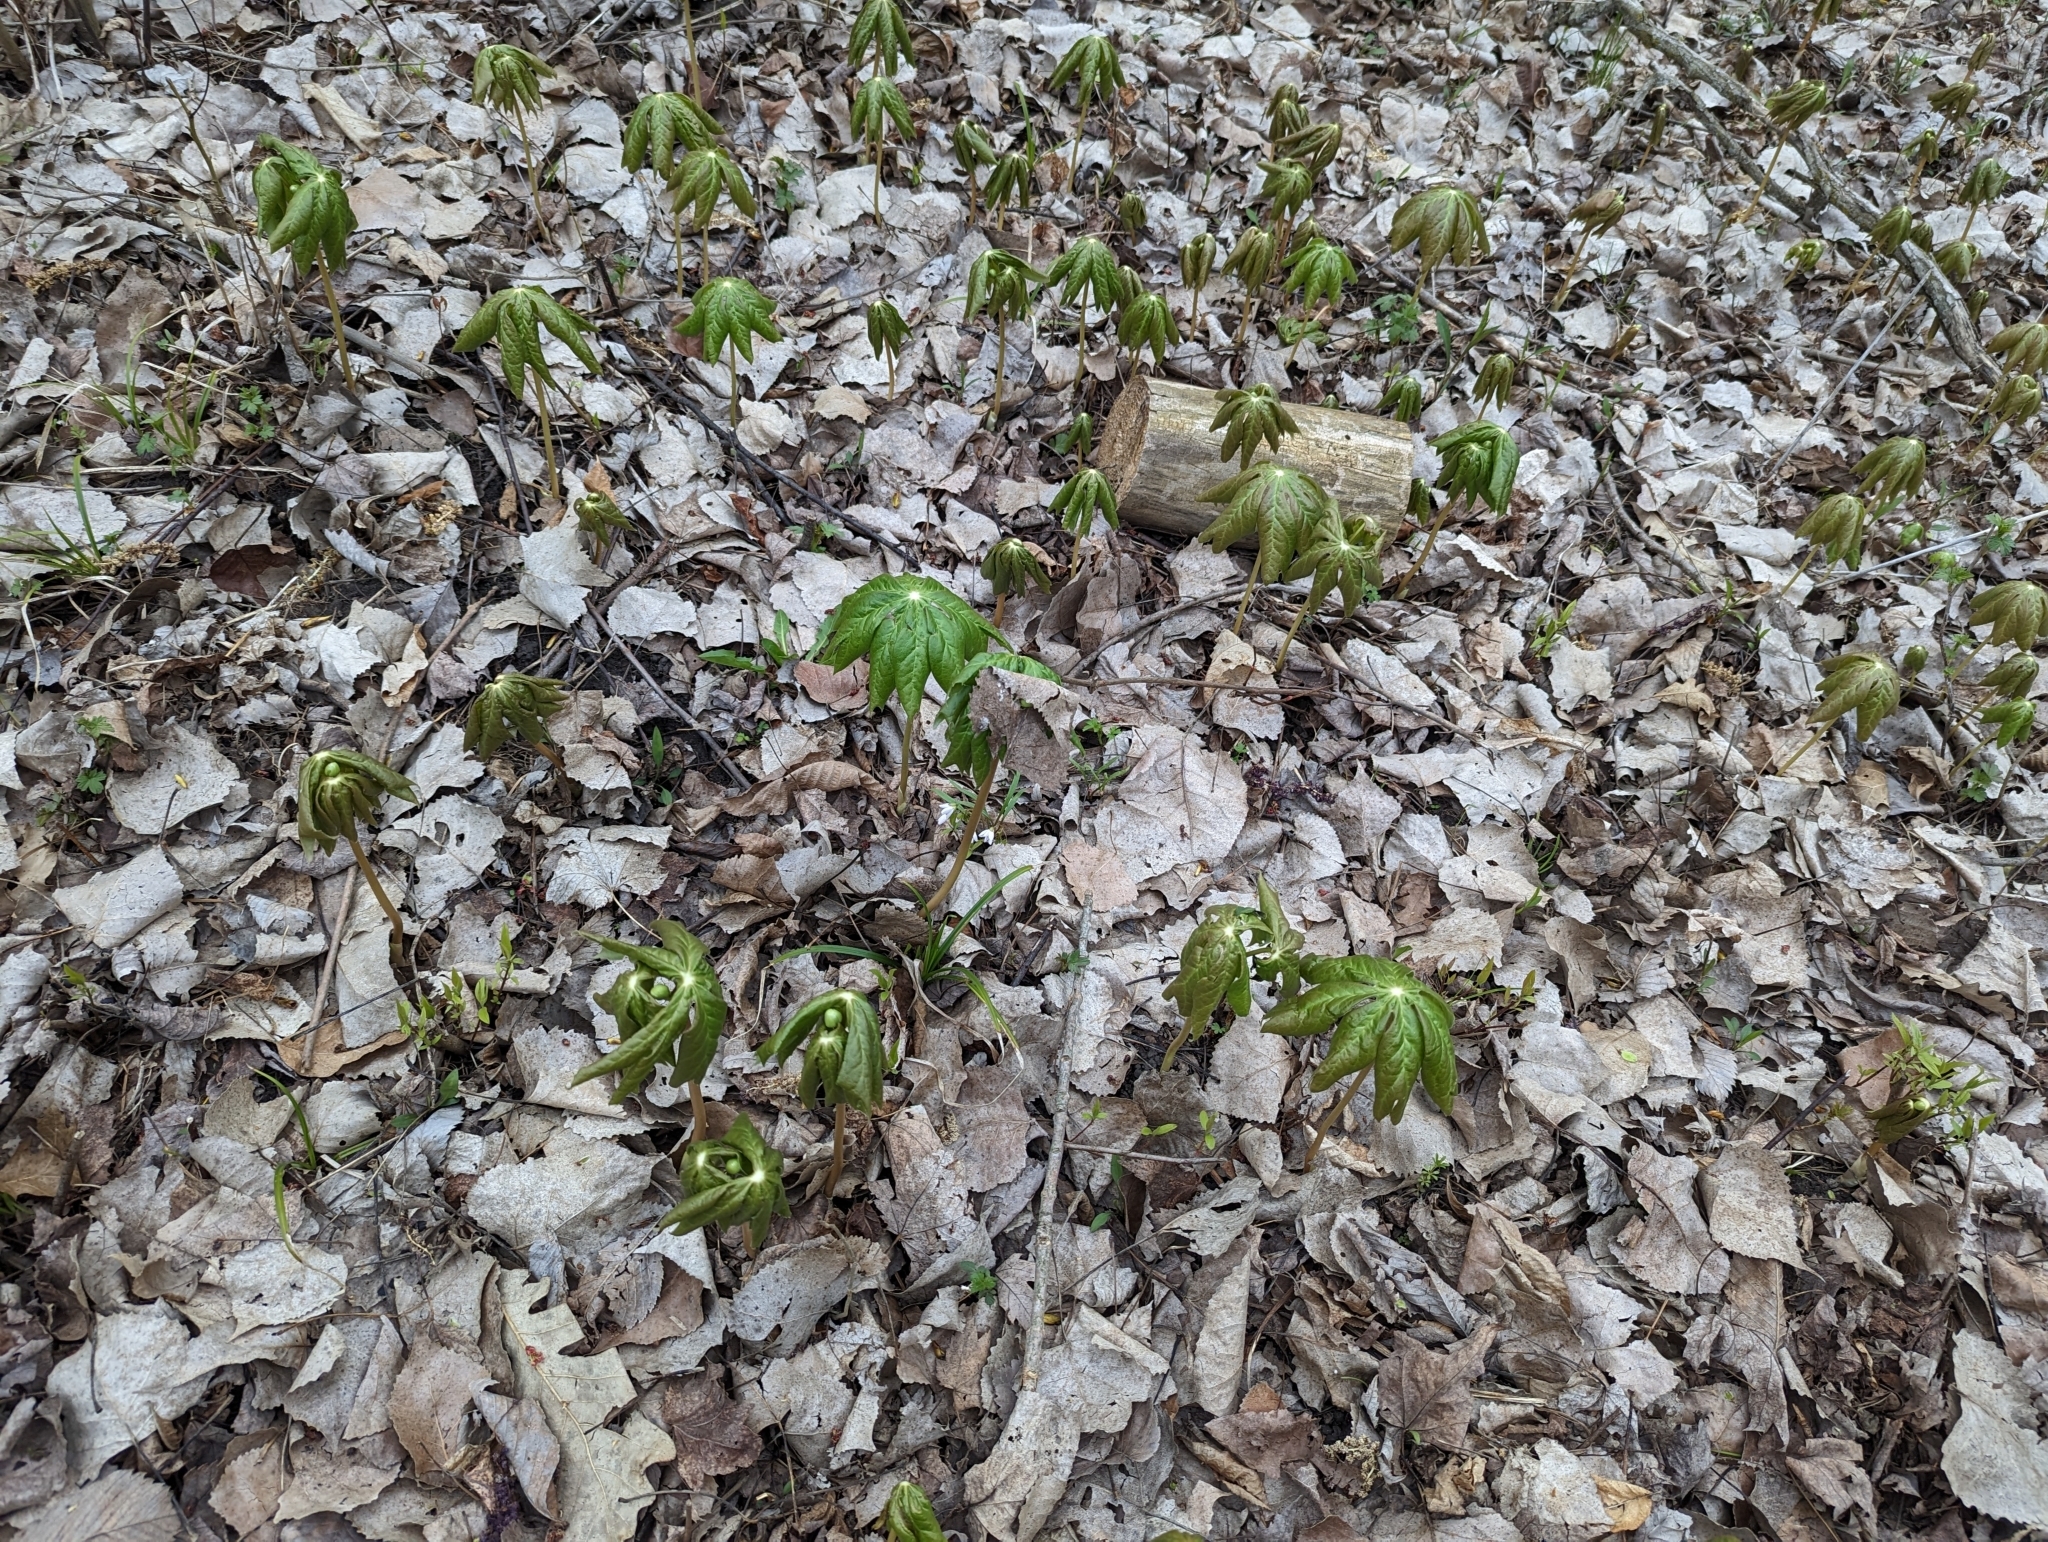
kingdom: Plantae
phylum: Tracheophyta
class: Magnoliopsida
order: Ranunculales
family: Berberidaceae
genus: Podophyllum
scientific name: Podophyllum peltatum
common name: Wild mandrake
